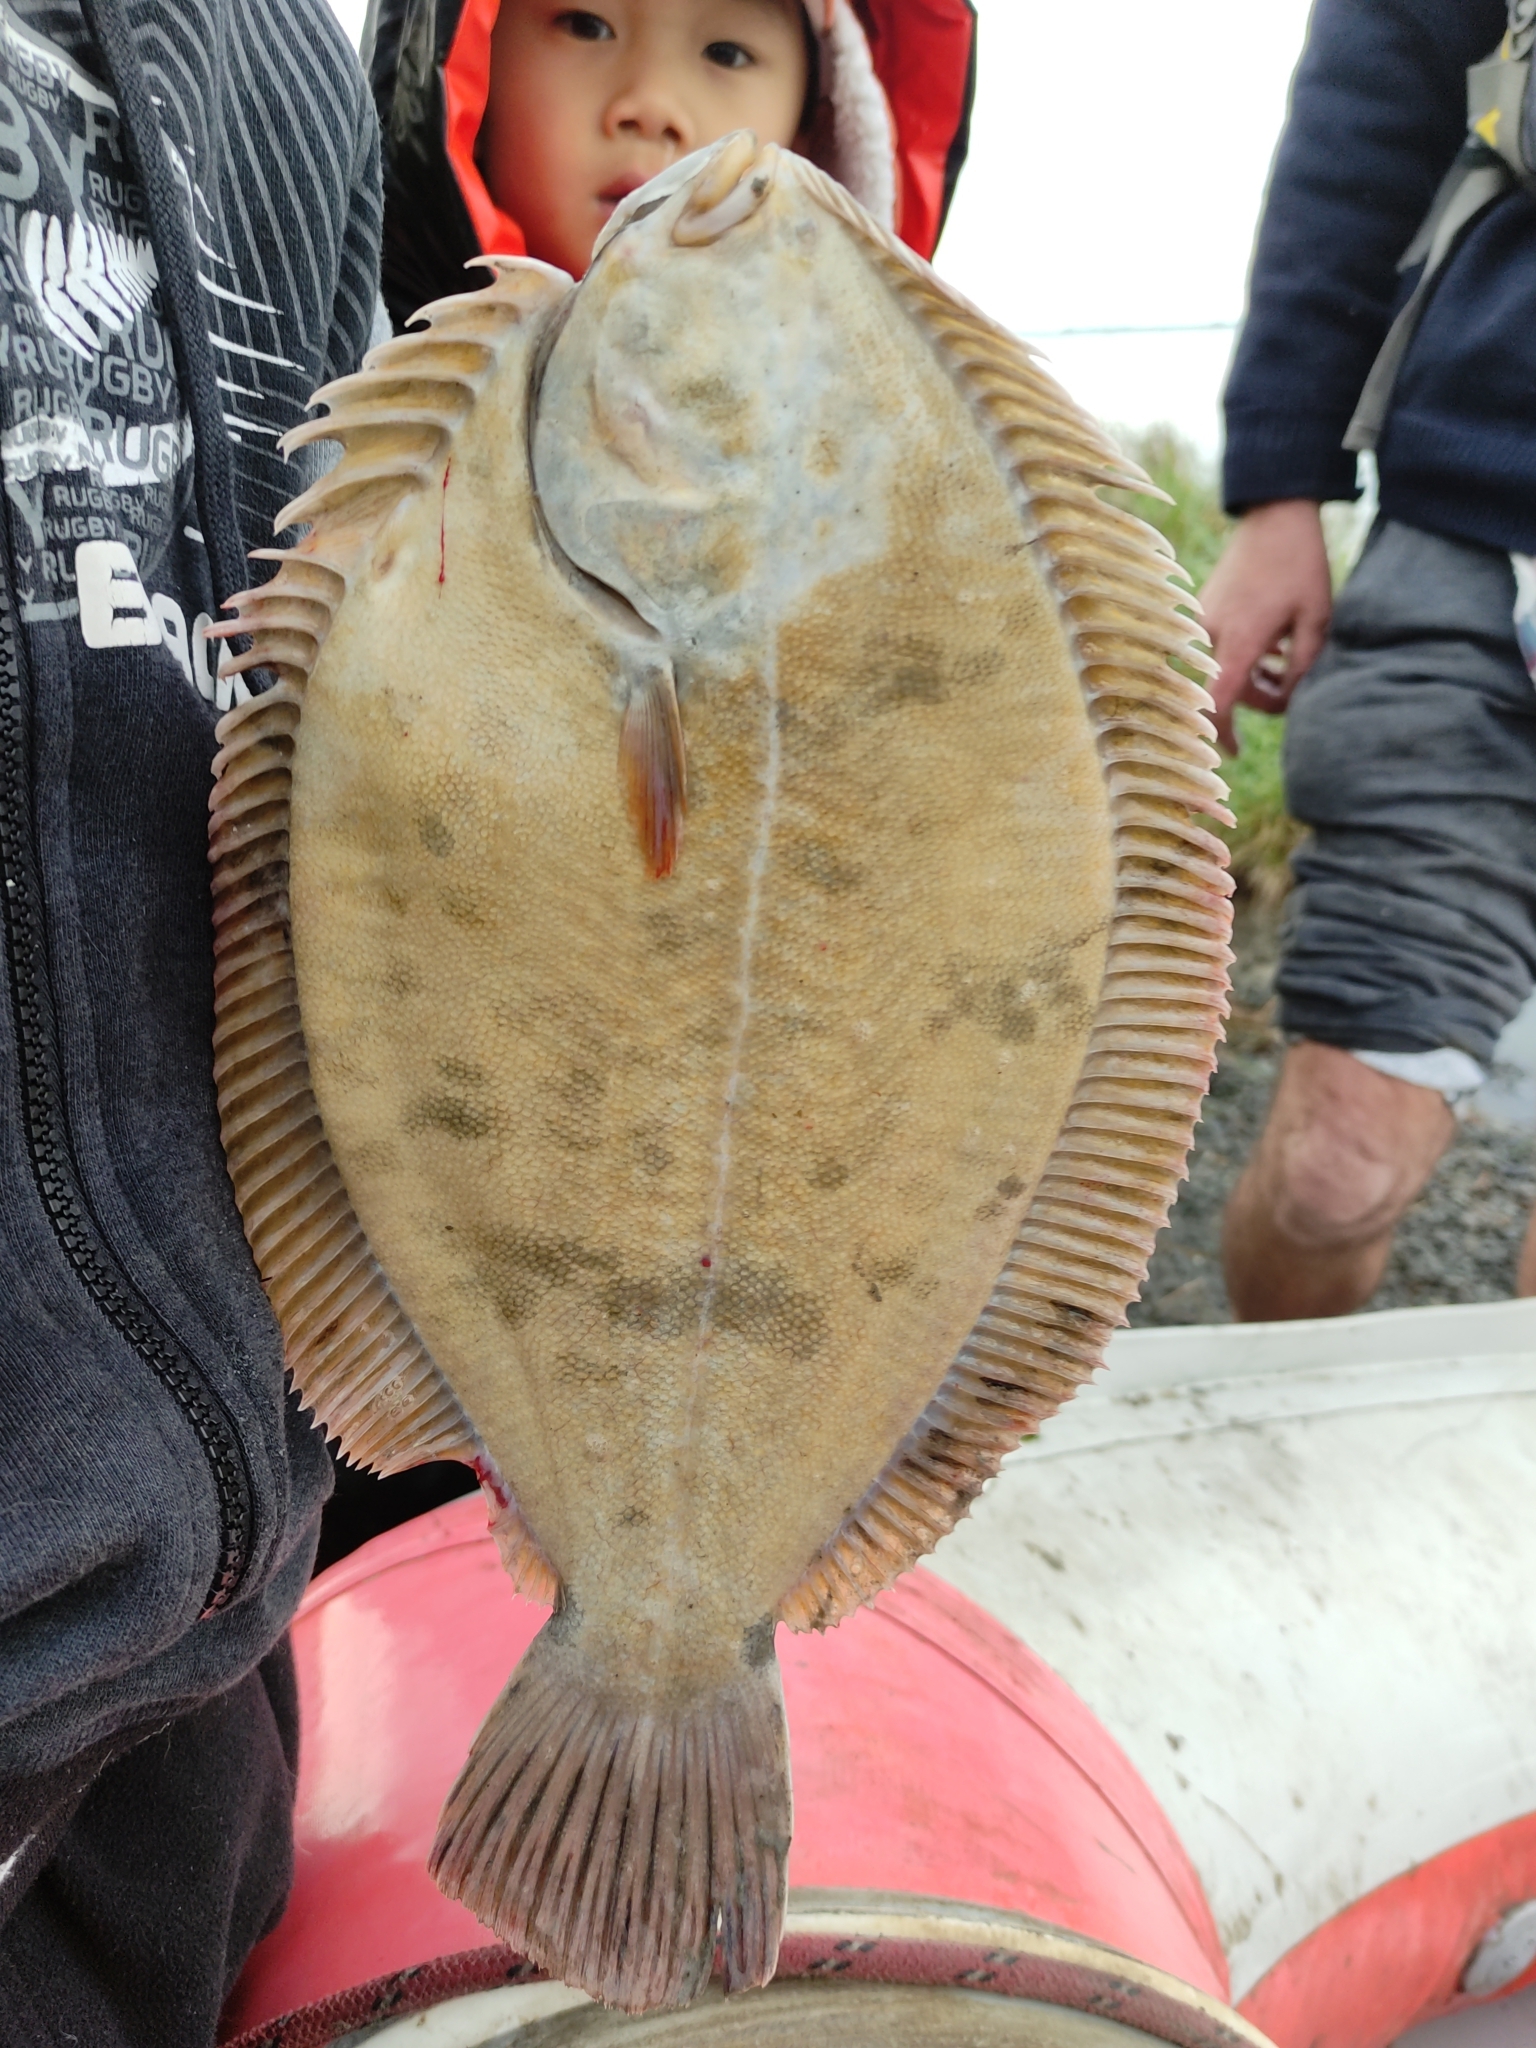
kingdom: Animalia
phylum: Chordata
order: Pleuronectiformes
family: Pleuronectidae
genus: Rhombosolea
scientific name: Rhombosolea retiaria
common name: Black flounder
